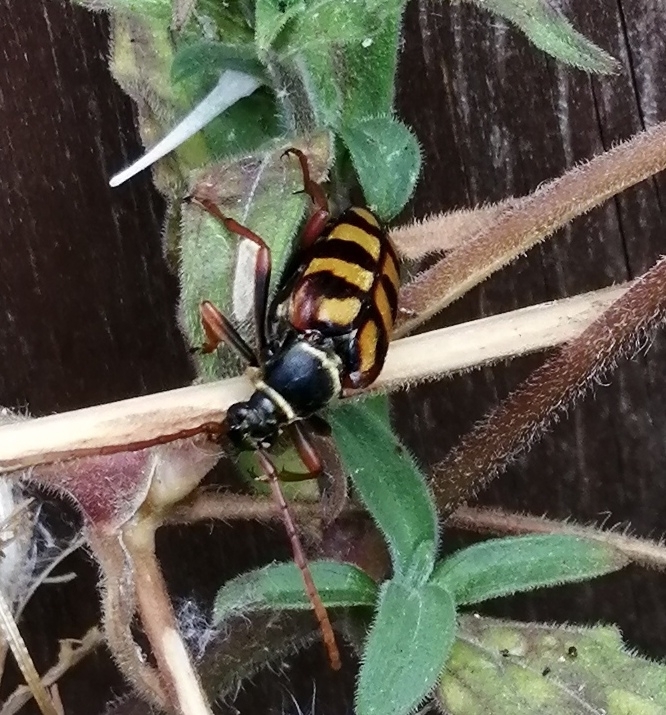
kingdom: Animalia
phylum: Arthropoda
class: Insecta
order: Coleoptera
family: Cerambycidae
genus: Leptura
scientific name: Leptura aurulenta
